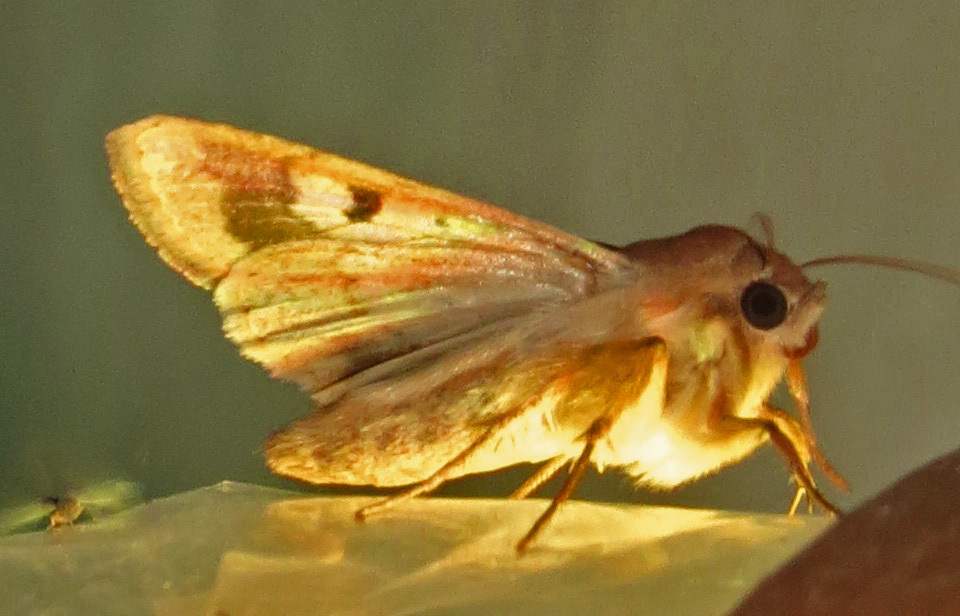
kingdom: Animalia
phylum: Arthropoda
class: Insecta
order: Lepidoptera
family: Noctuidae
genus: Helicoverpa
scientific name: Helicoverpa zea
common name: Bollworm
